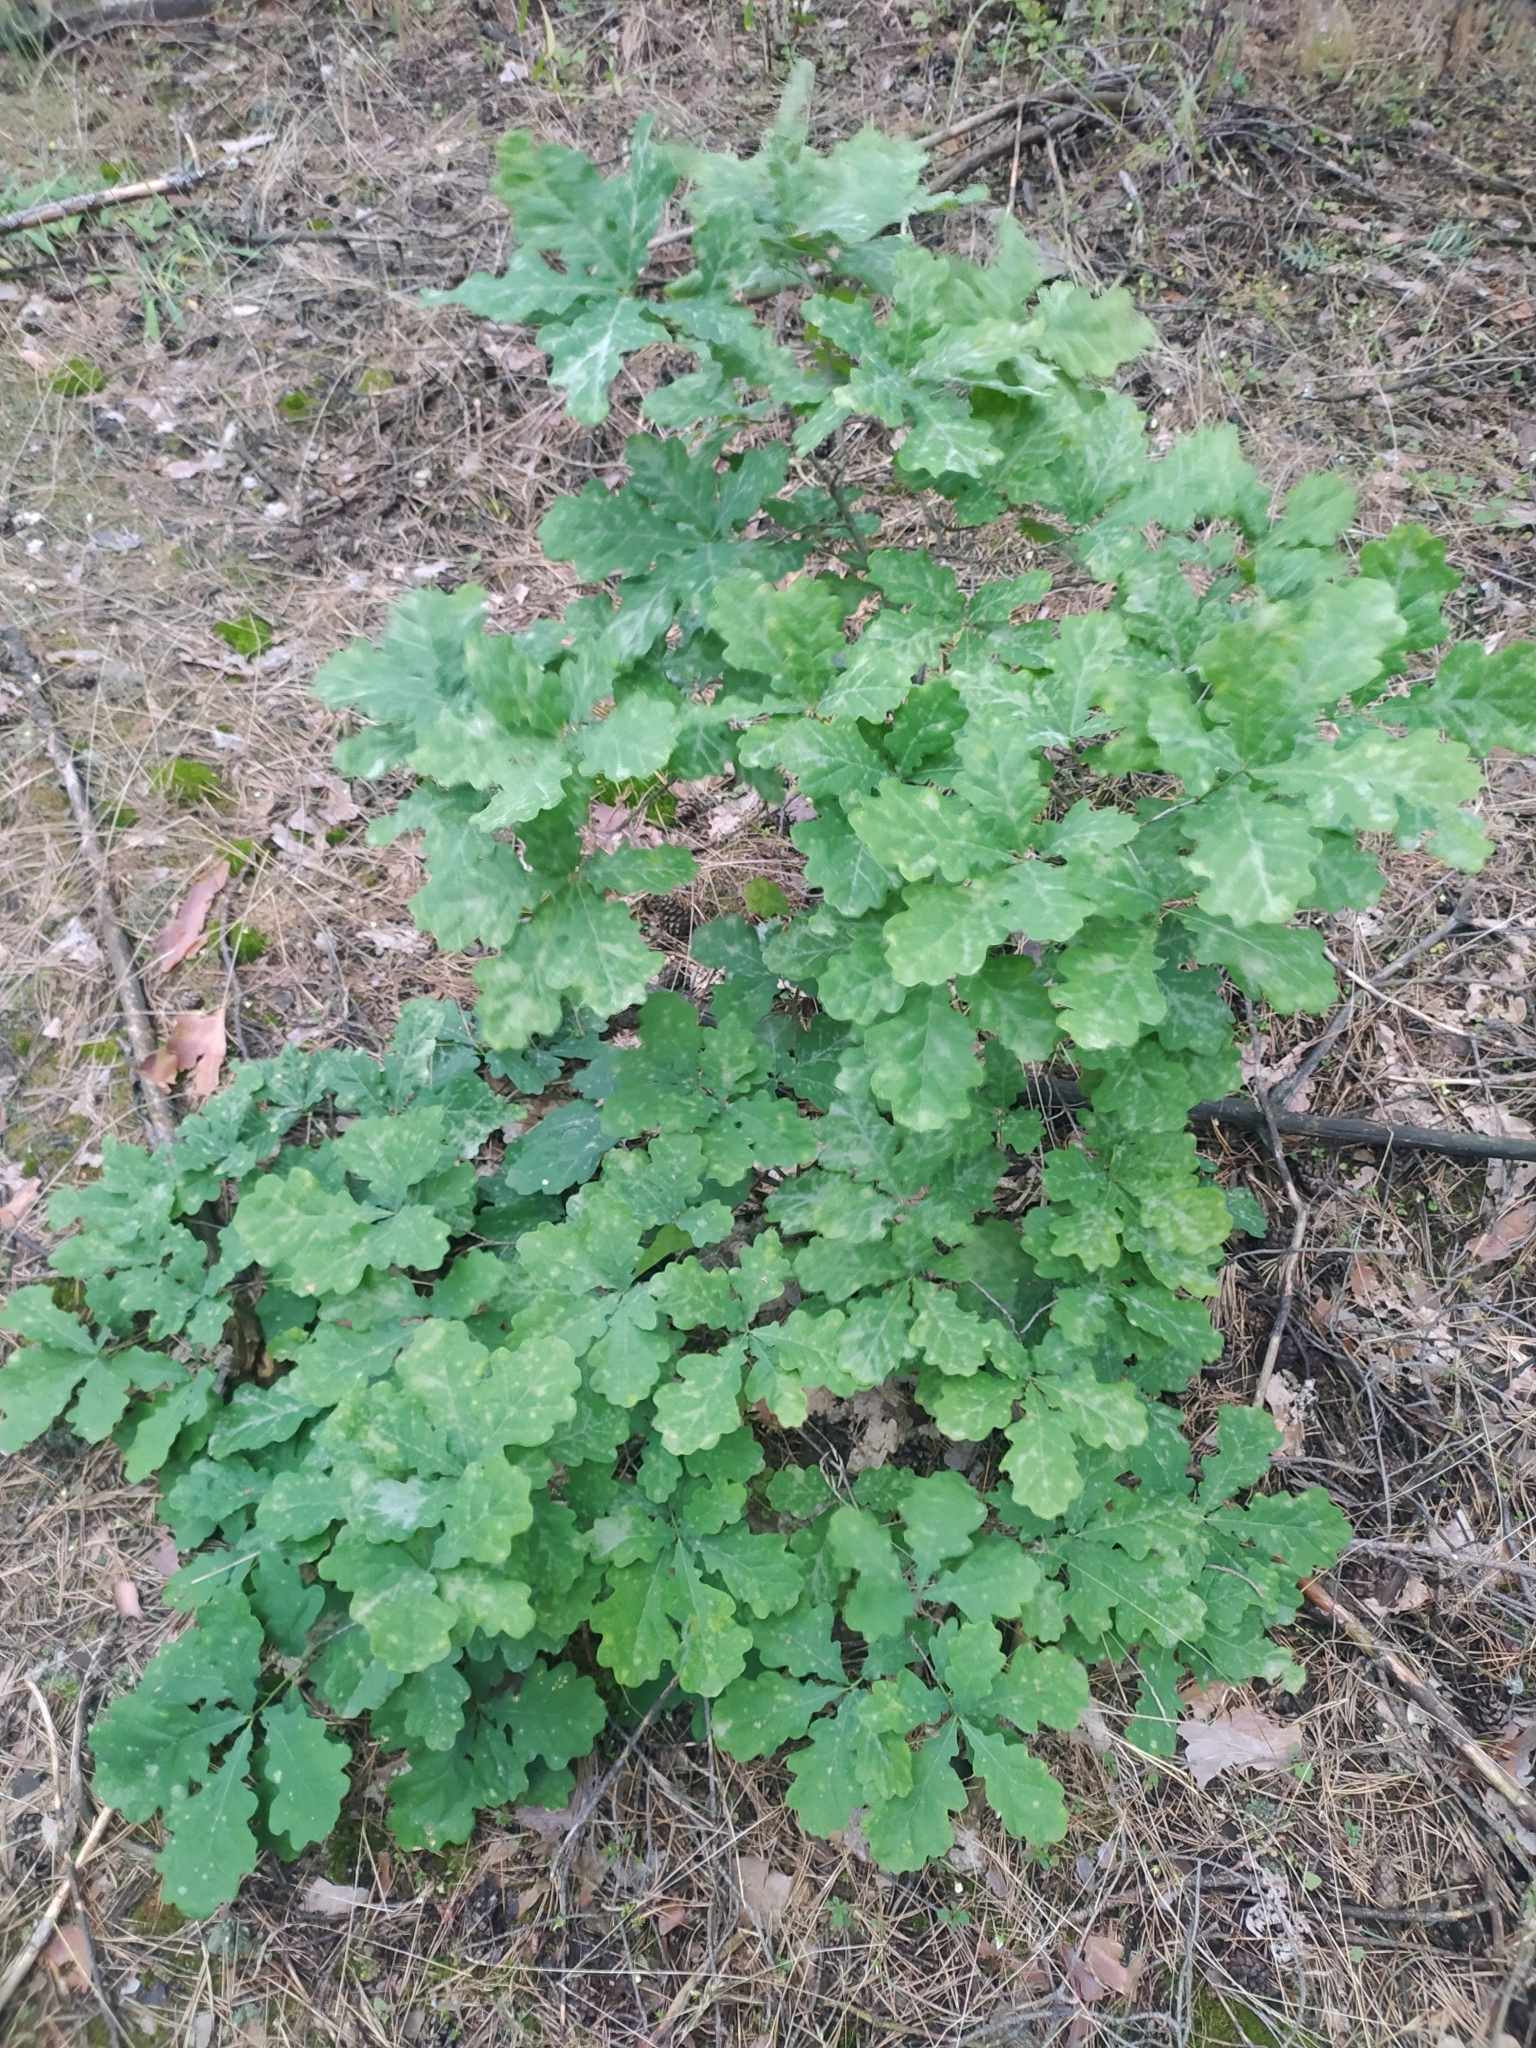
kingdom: Plantae
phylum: Tracheophyta
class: Magnoliopsida
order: Fagales
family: Fagaceae
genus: Quercus
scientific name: Quercus robur
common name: Pedunculate oak
